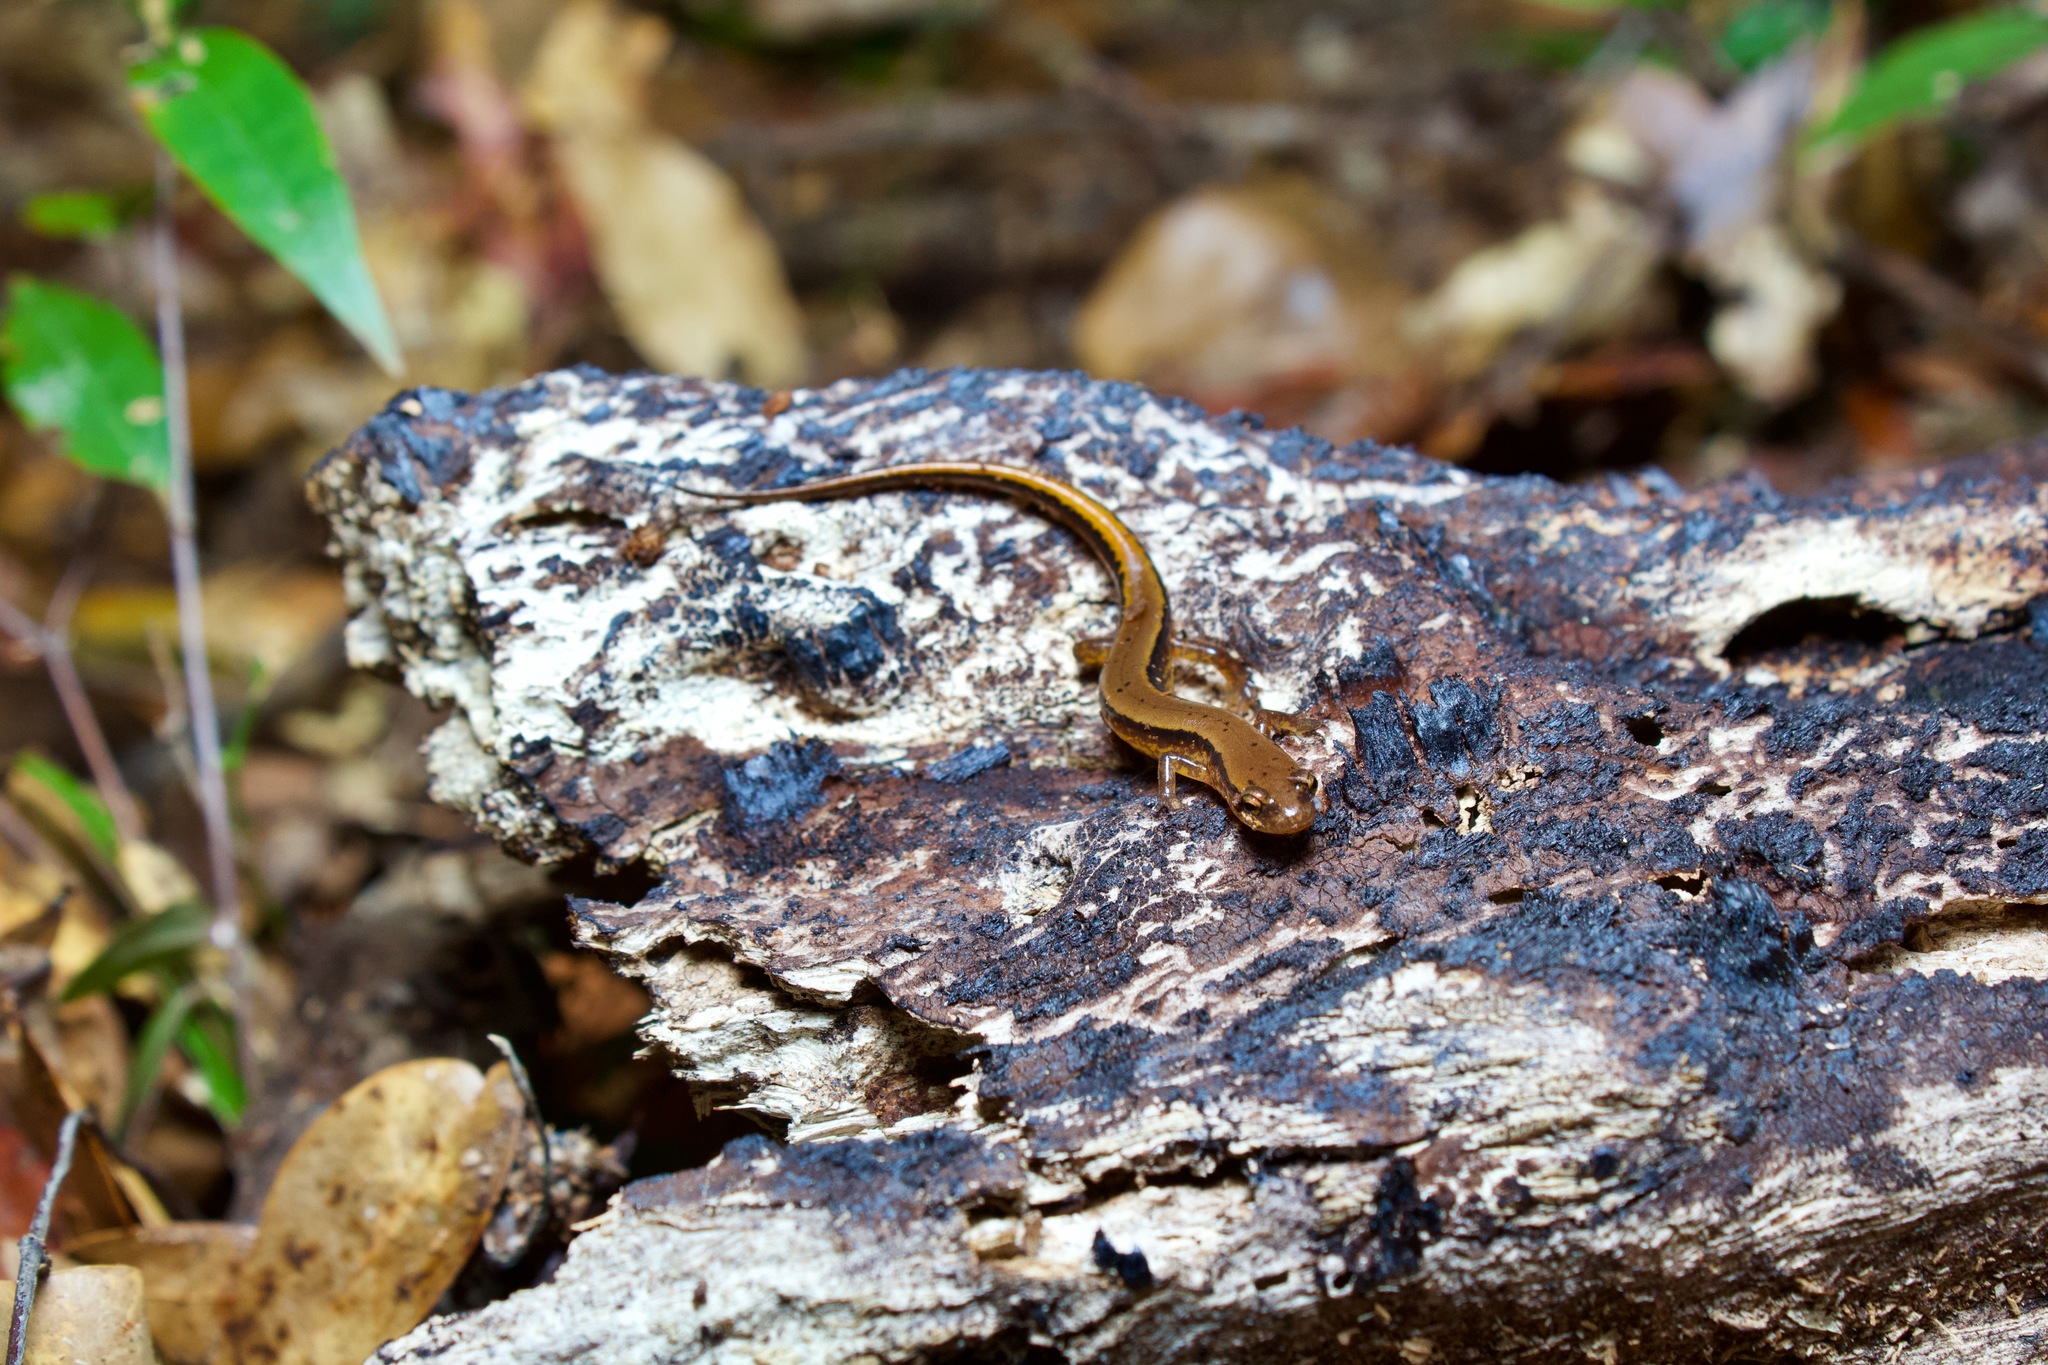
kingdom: Animalia
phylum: Chordata
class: Amphibia
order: Caudata
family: Plethodontidae
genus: Eurycea
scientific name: Eurycea cirrigera
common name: Southern two-lined salamander
